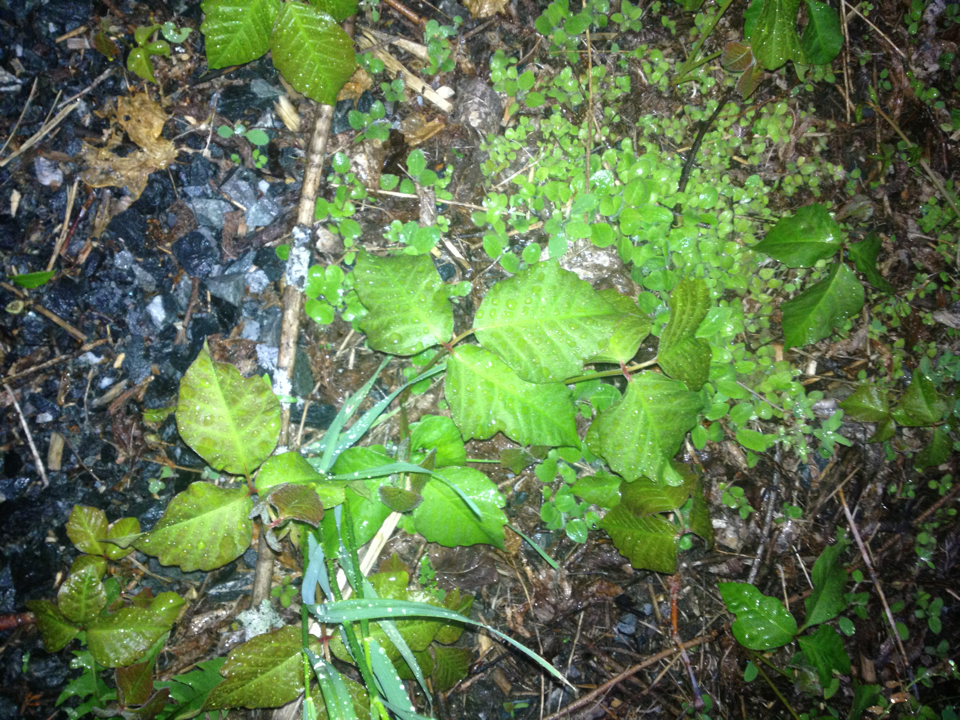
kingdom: Plantae
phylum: Tracheophyta
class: Magnoliopsida
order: Sapindales
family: Anacardiaceae
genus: Toxicodendron
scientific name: Toxicodendron radicans
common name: Poison ivy
